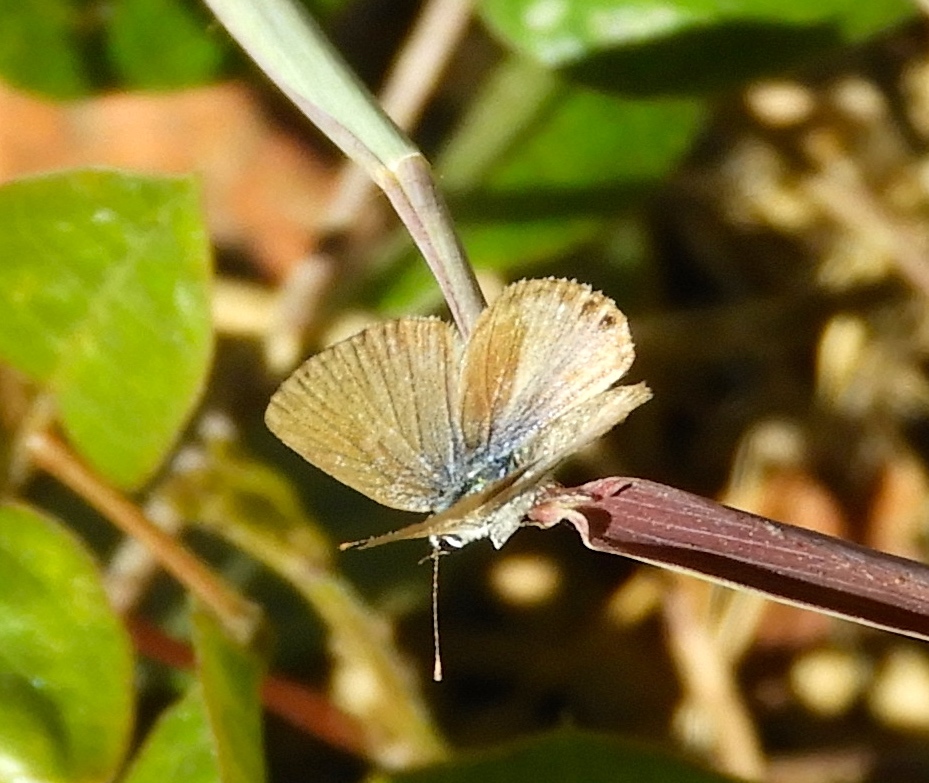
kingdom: Animalia
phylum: Arthropoda
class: Insecta
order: Lepidoptera
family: Lycaenidae
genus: Hemiargus
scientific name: Hemiargus ceraunus
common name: Ceraunus blue
